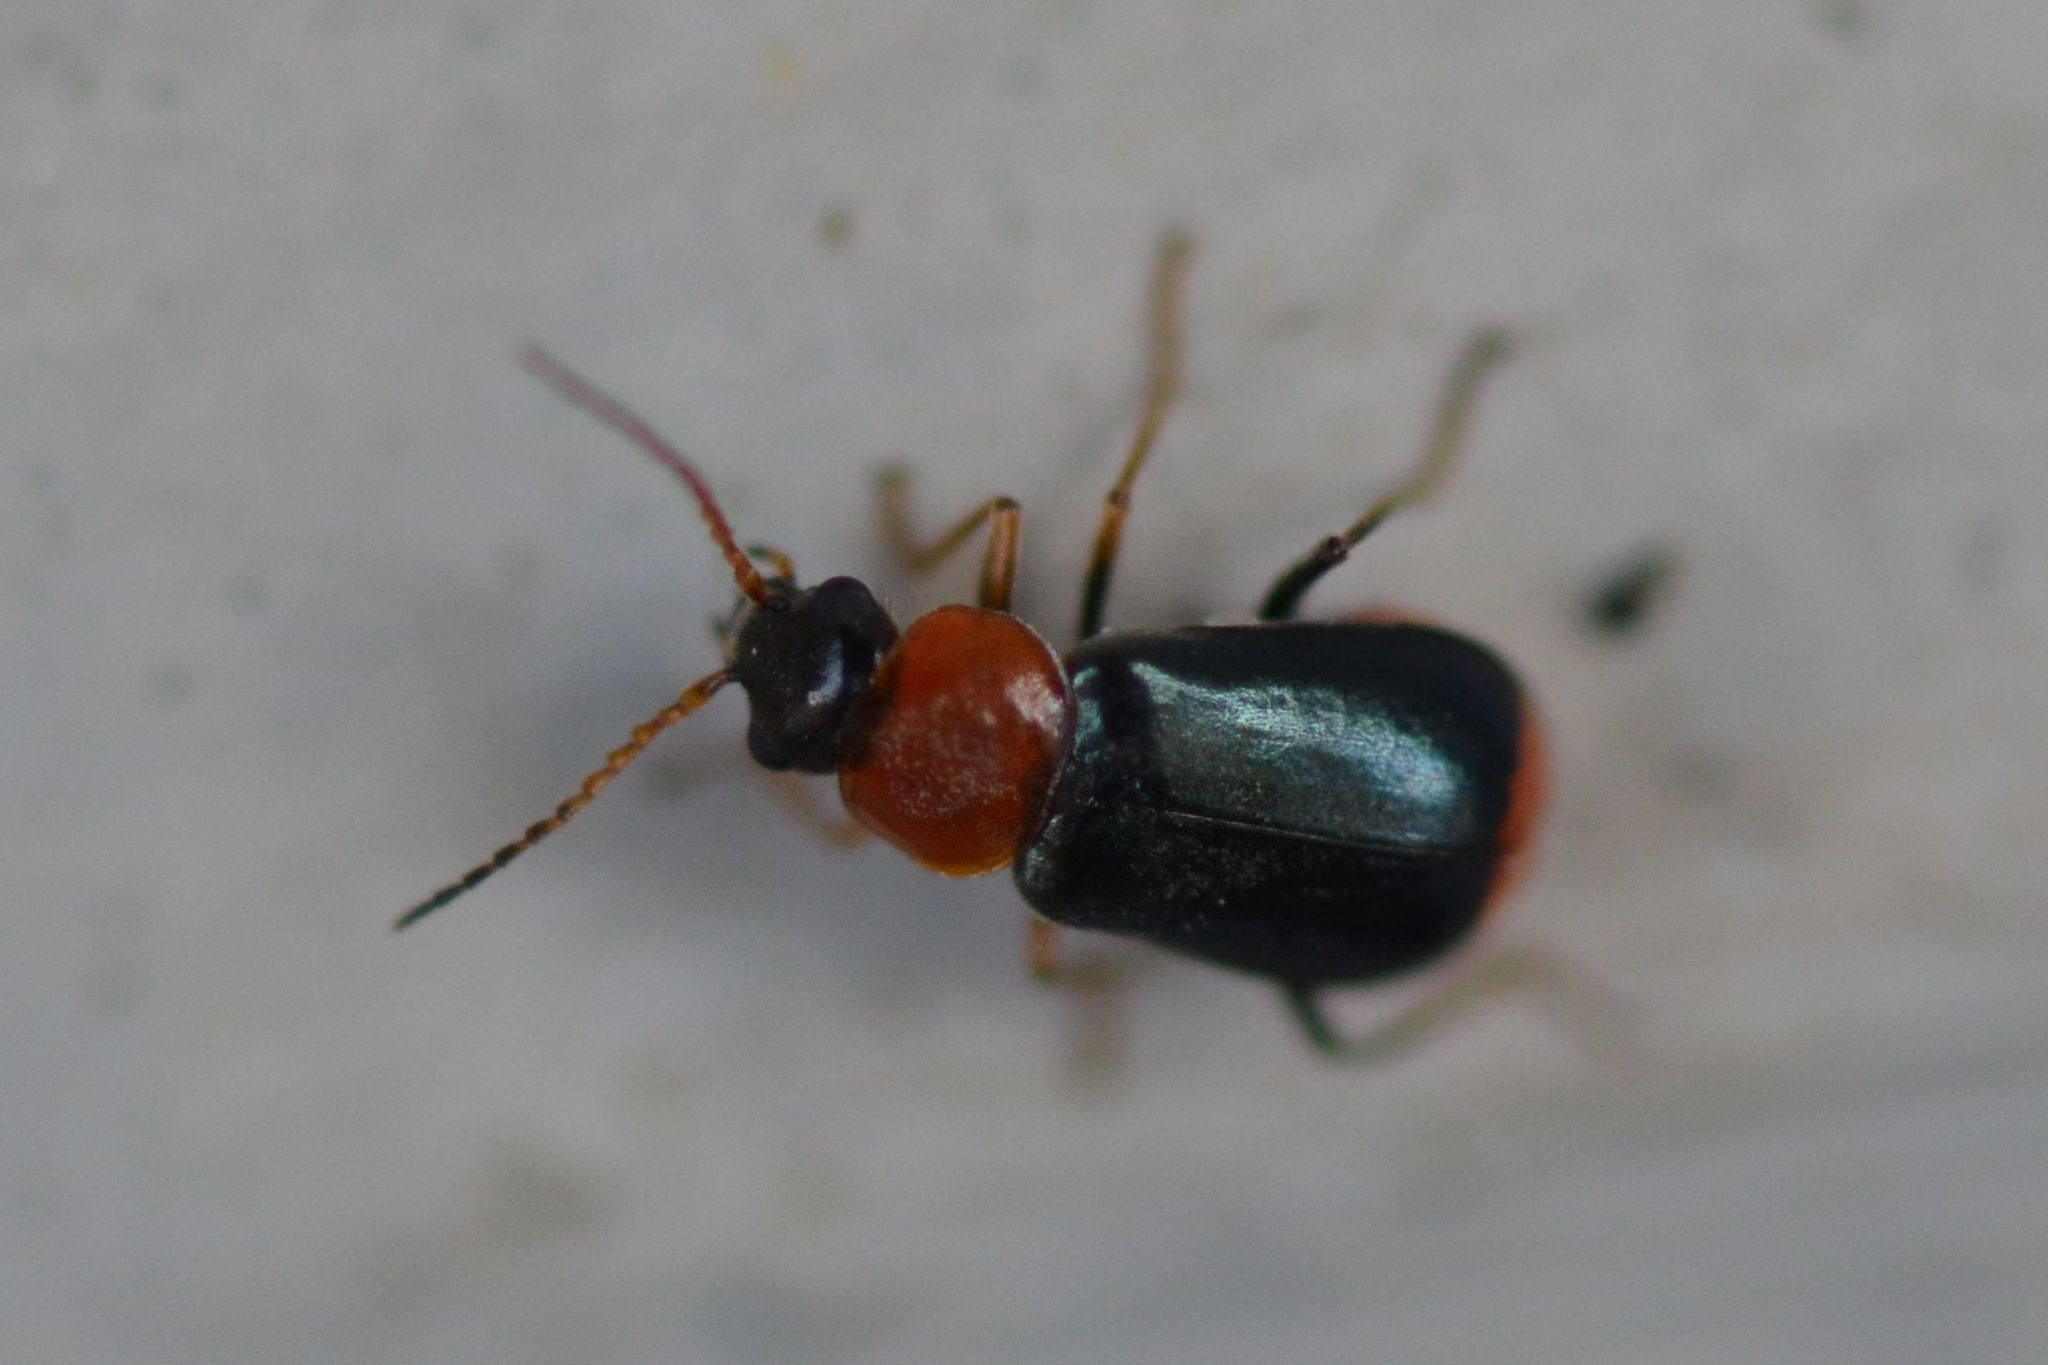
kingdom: Animalia
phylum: Arthropoda
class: Insecta
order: Coleoptera
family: Malachiidae
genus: Ebaeus
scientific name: Ebaeus battonii
